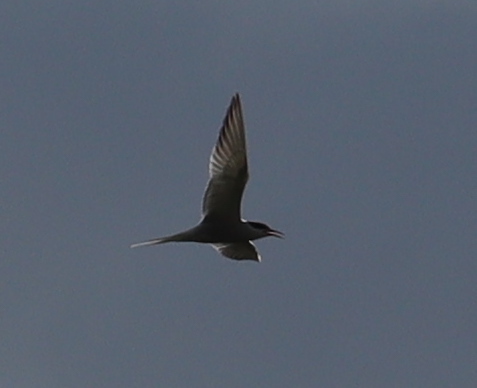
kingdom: Animalia
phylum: Chordata
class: Aves
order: Charadriiformes
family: Laridae
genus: Sterna
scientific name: Sterna hirundo
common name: Common tern
